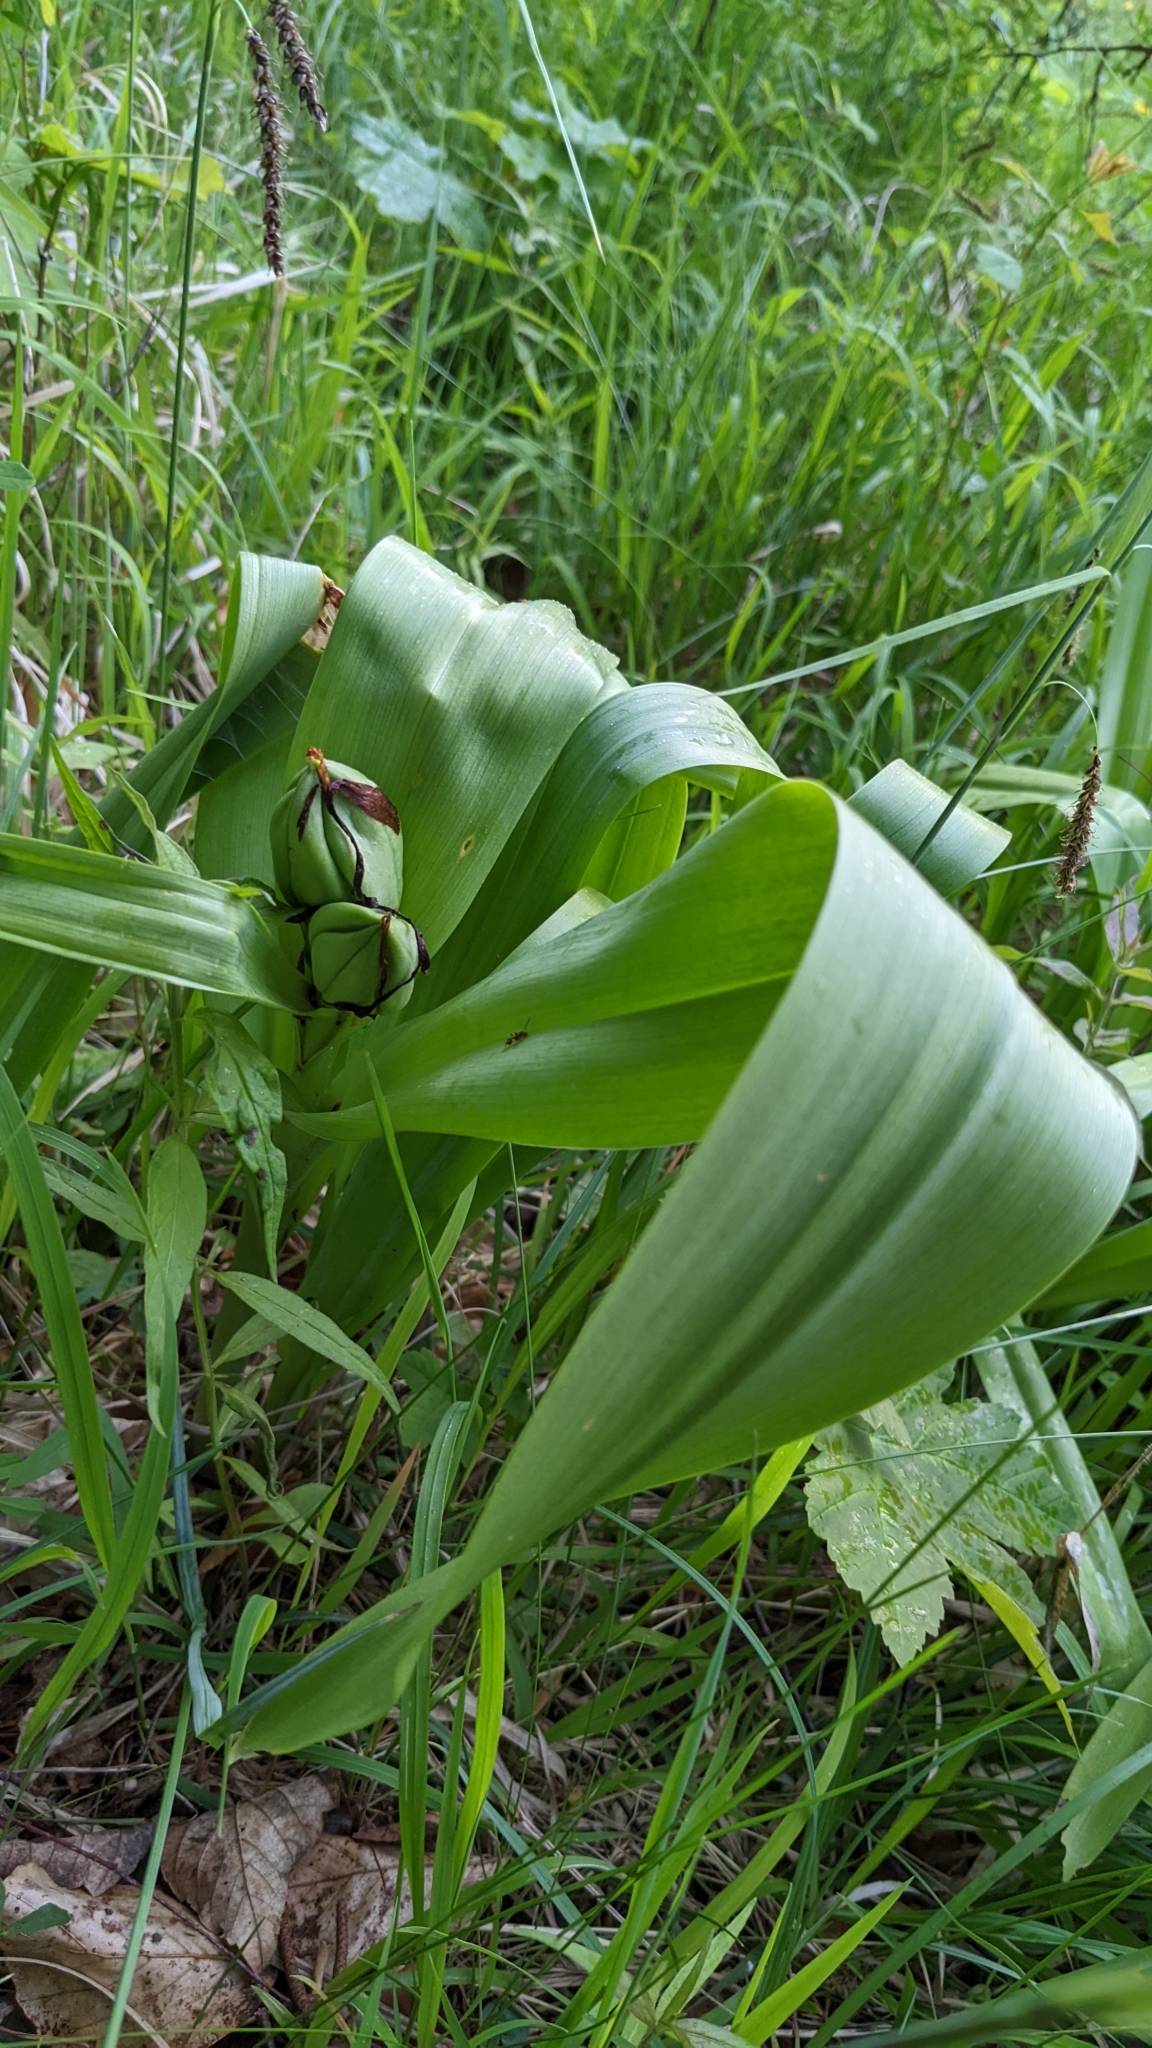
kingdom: Plantae
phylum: Tracheophyta
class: Liliopsida
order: Liliales
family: Colchicaceae
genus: Colchicum
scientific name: Colchicum autumnale
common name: Autumn crocus
